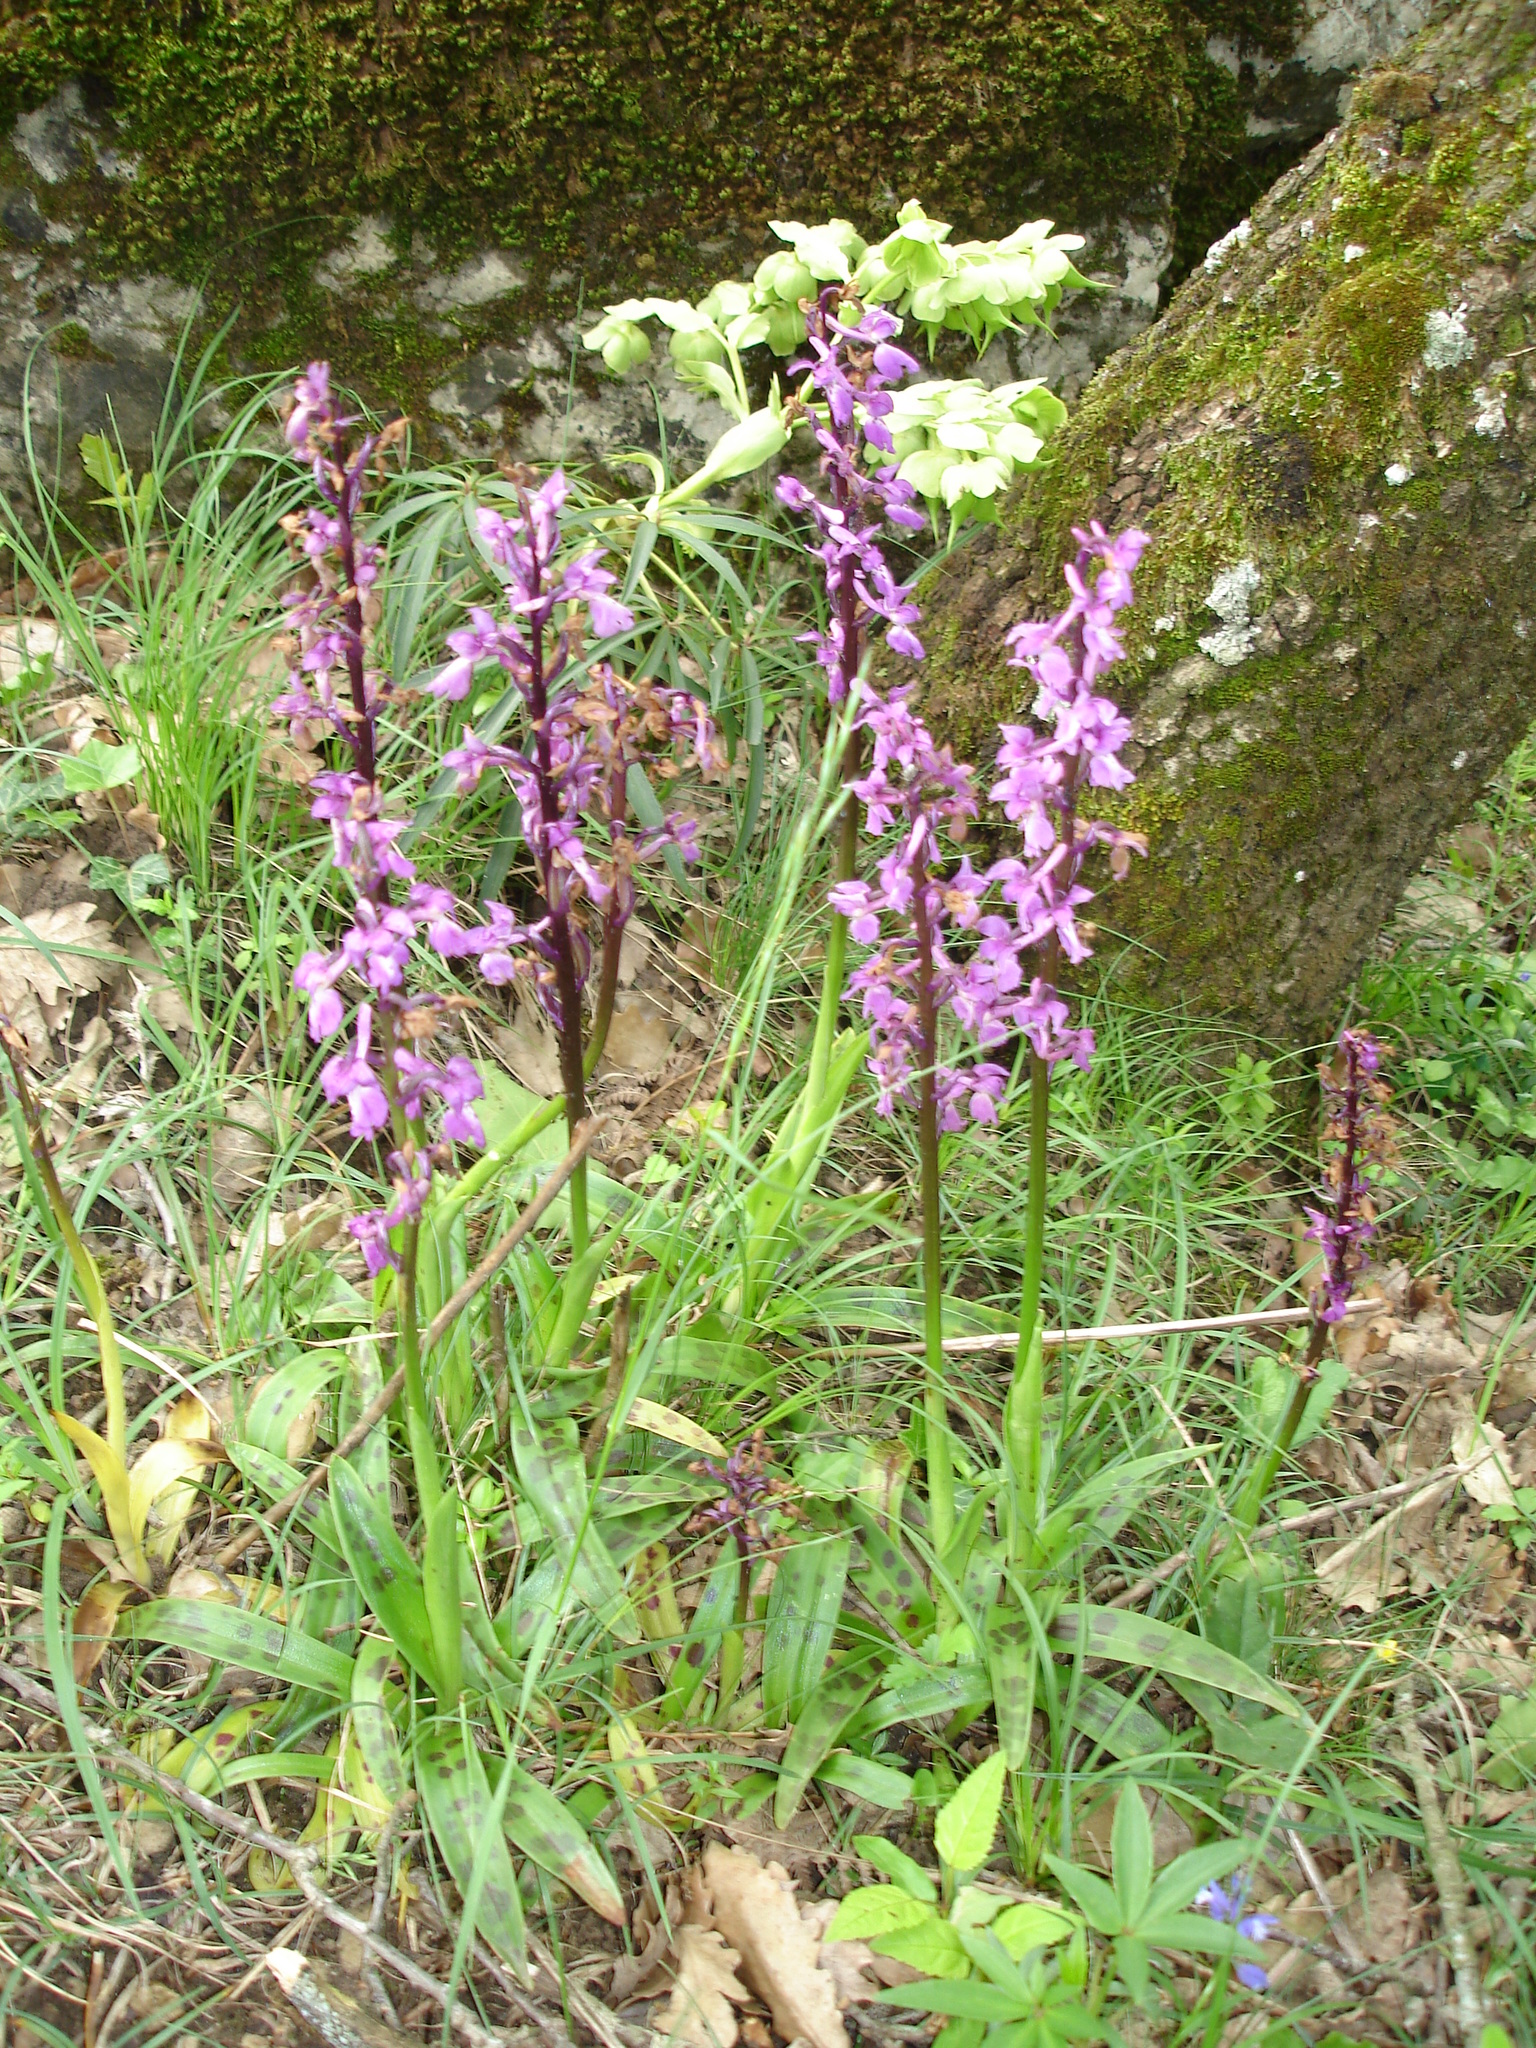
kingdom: Plantae
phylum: Tracheophyta
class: Liliopsida
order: Asparagales
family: Orchidaceae
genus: Orchis
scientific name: Orchis mascula
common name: Early-purple orchid
